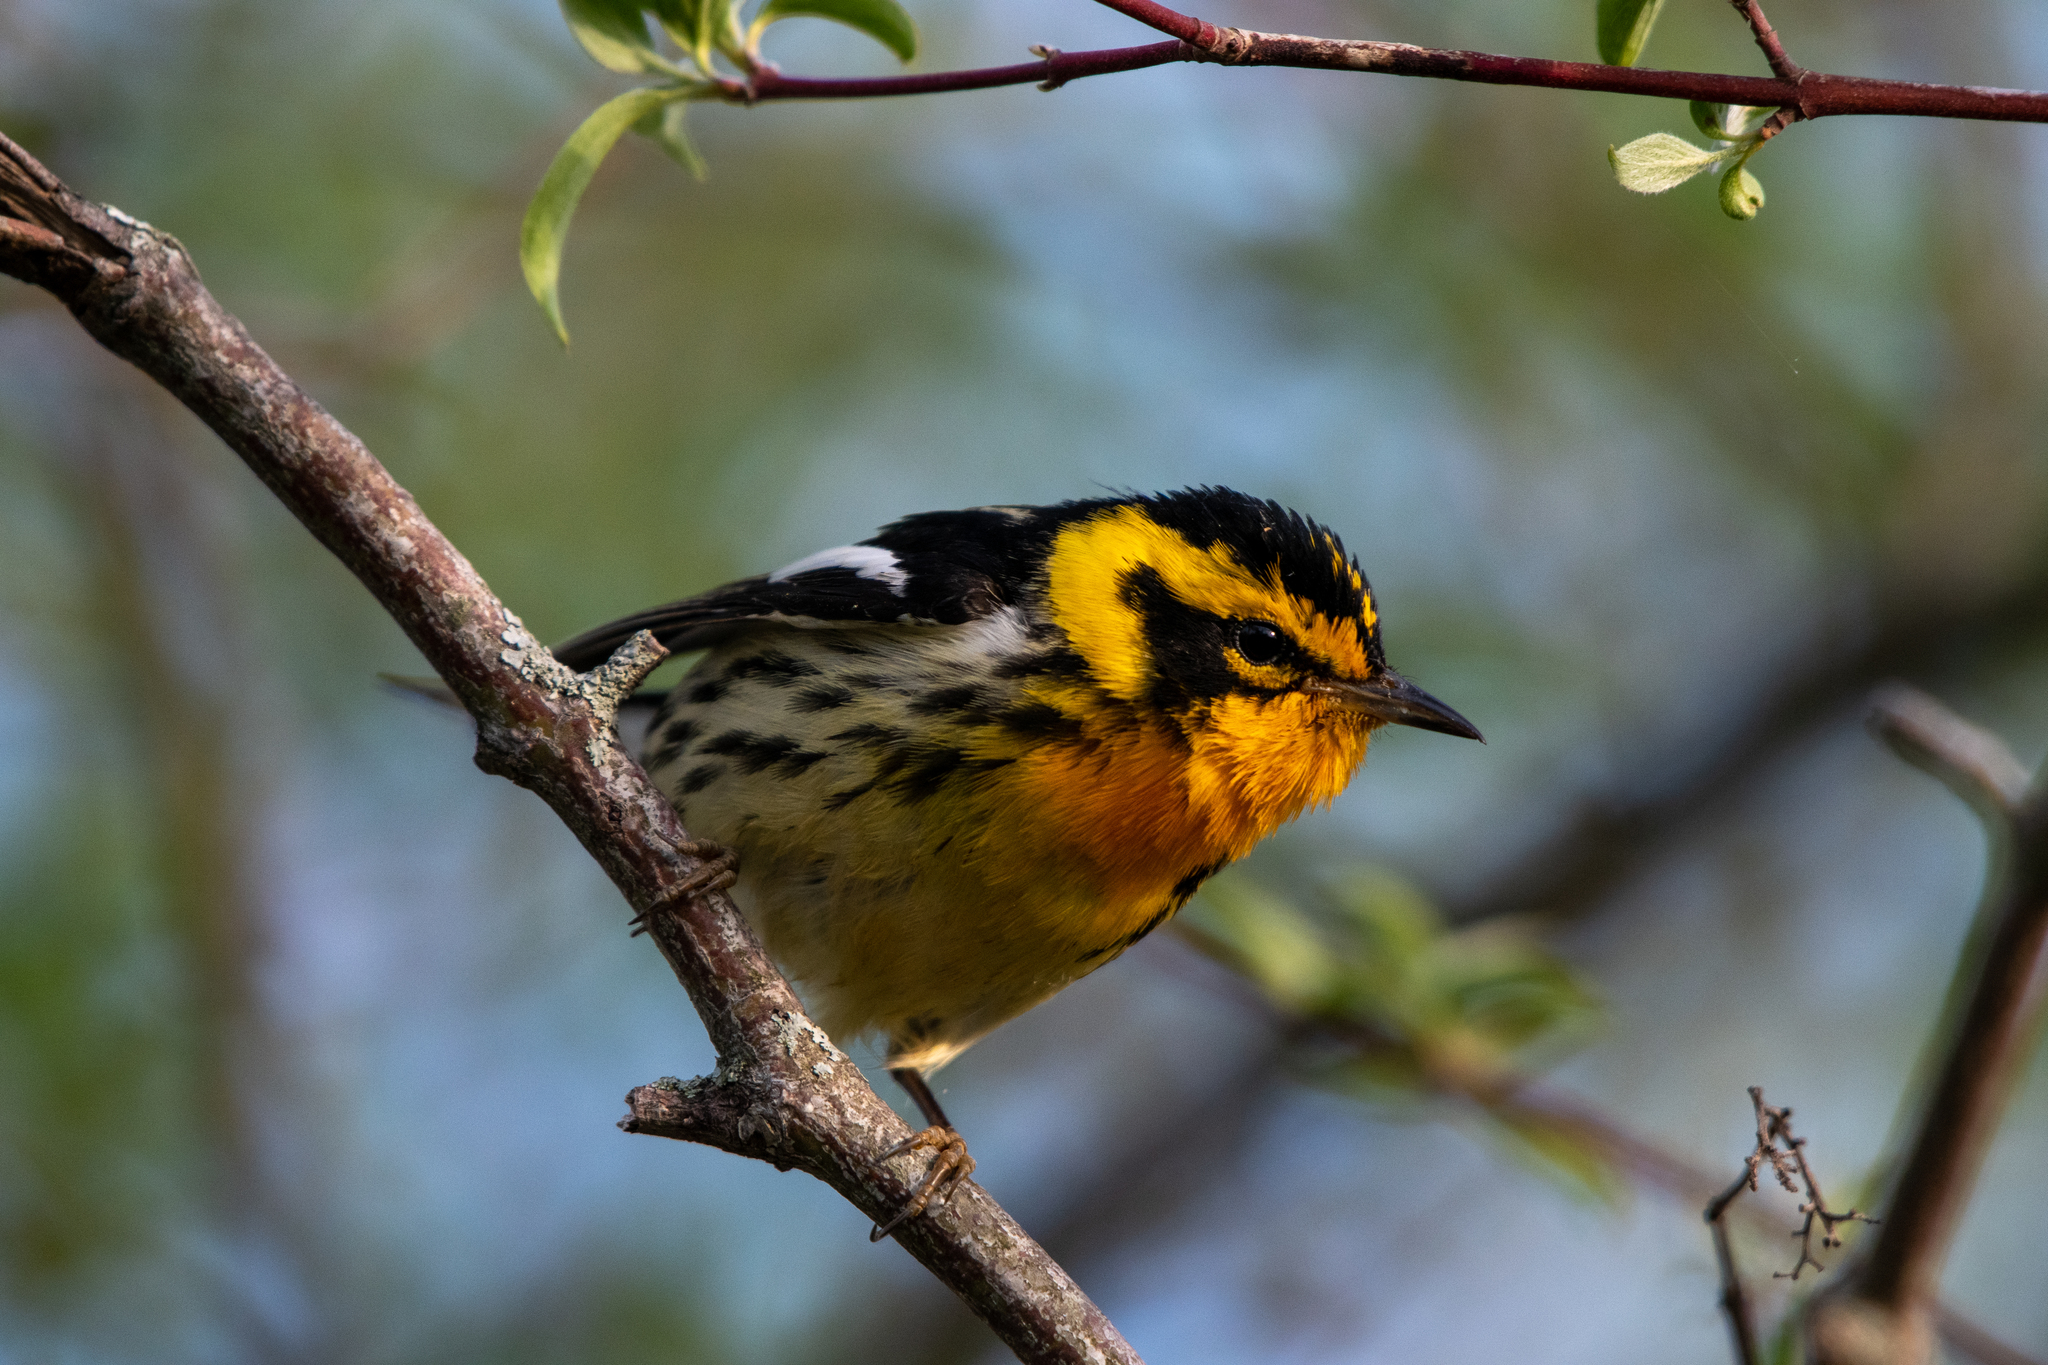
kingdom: Animalia
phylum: Chordata
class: Aves
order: Passeriformes
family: Parulidae
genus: Setophaga
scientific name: Setophaga fusca
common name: Blackburnian warbler
